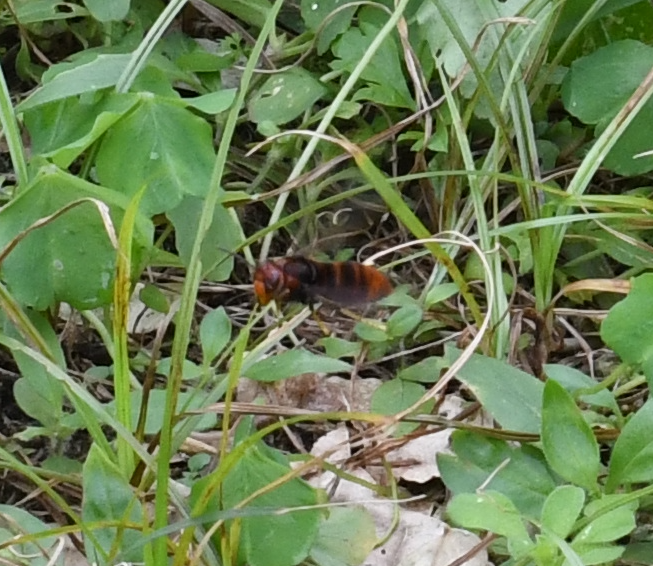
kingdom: Animalia
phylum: Arthropoda
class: Insecta
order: Hymenoptera
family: Vespidae
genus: Vespa
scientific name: Vespa velutina
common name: Asian hornet
